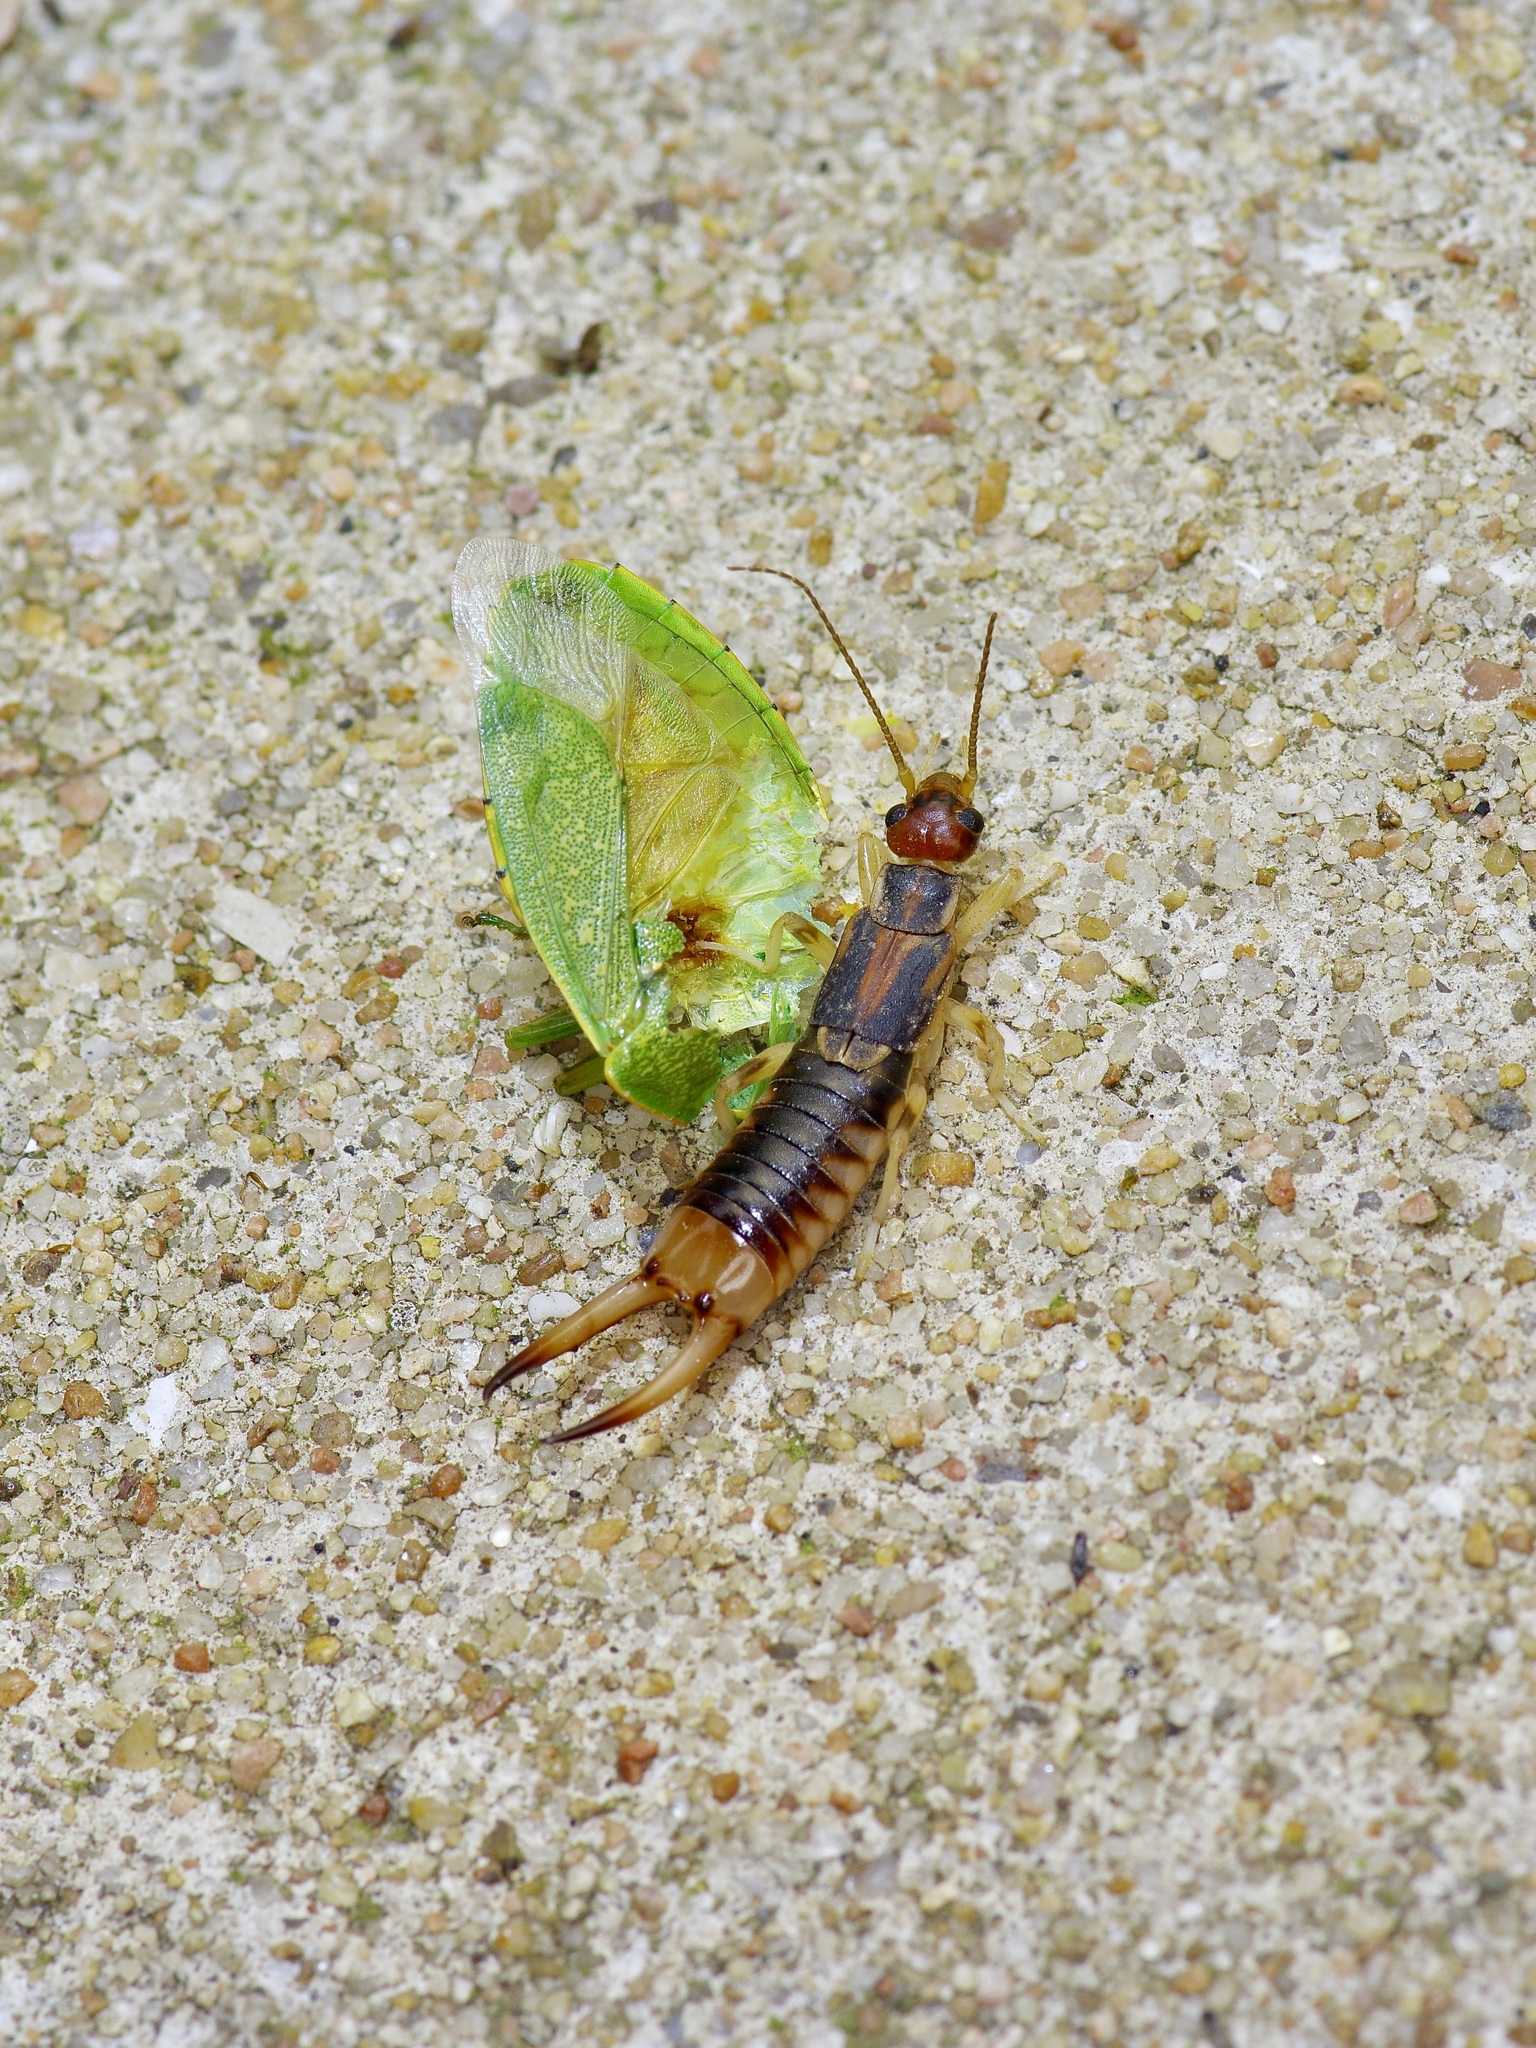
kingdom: Animalia
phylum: Arthropoda
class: Insecta
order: Dermaptera
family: Labiduridae
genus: Labidura
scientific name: Labidura riparia
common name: Striped earwig
